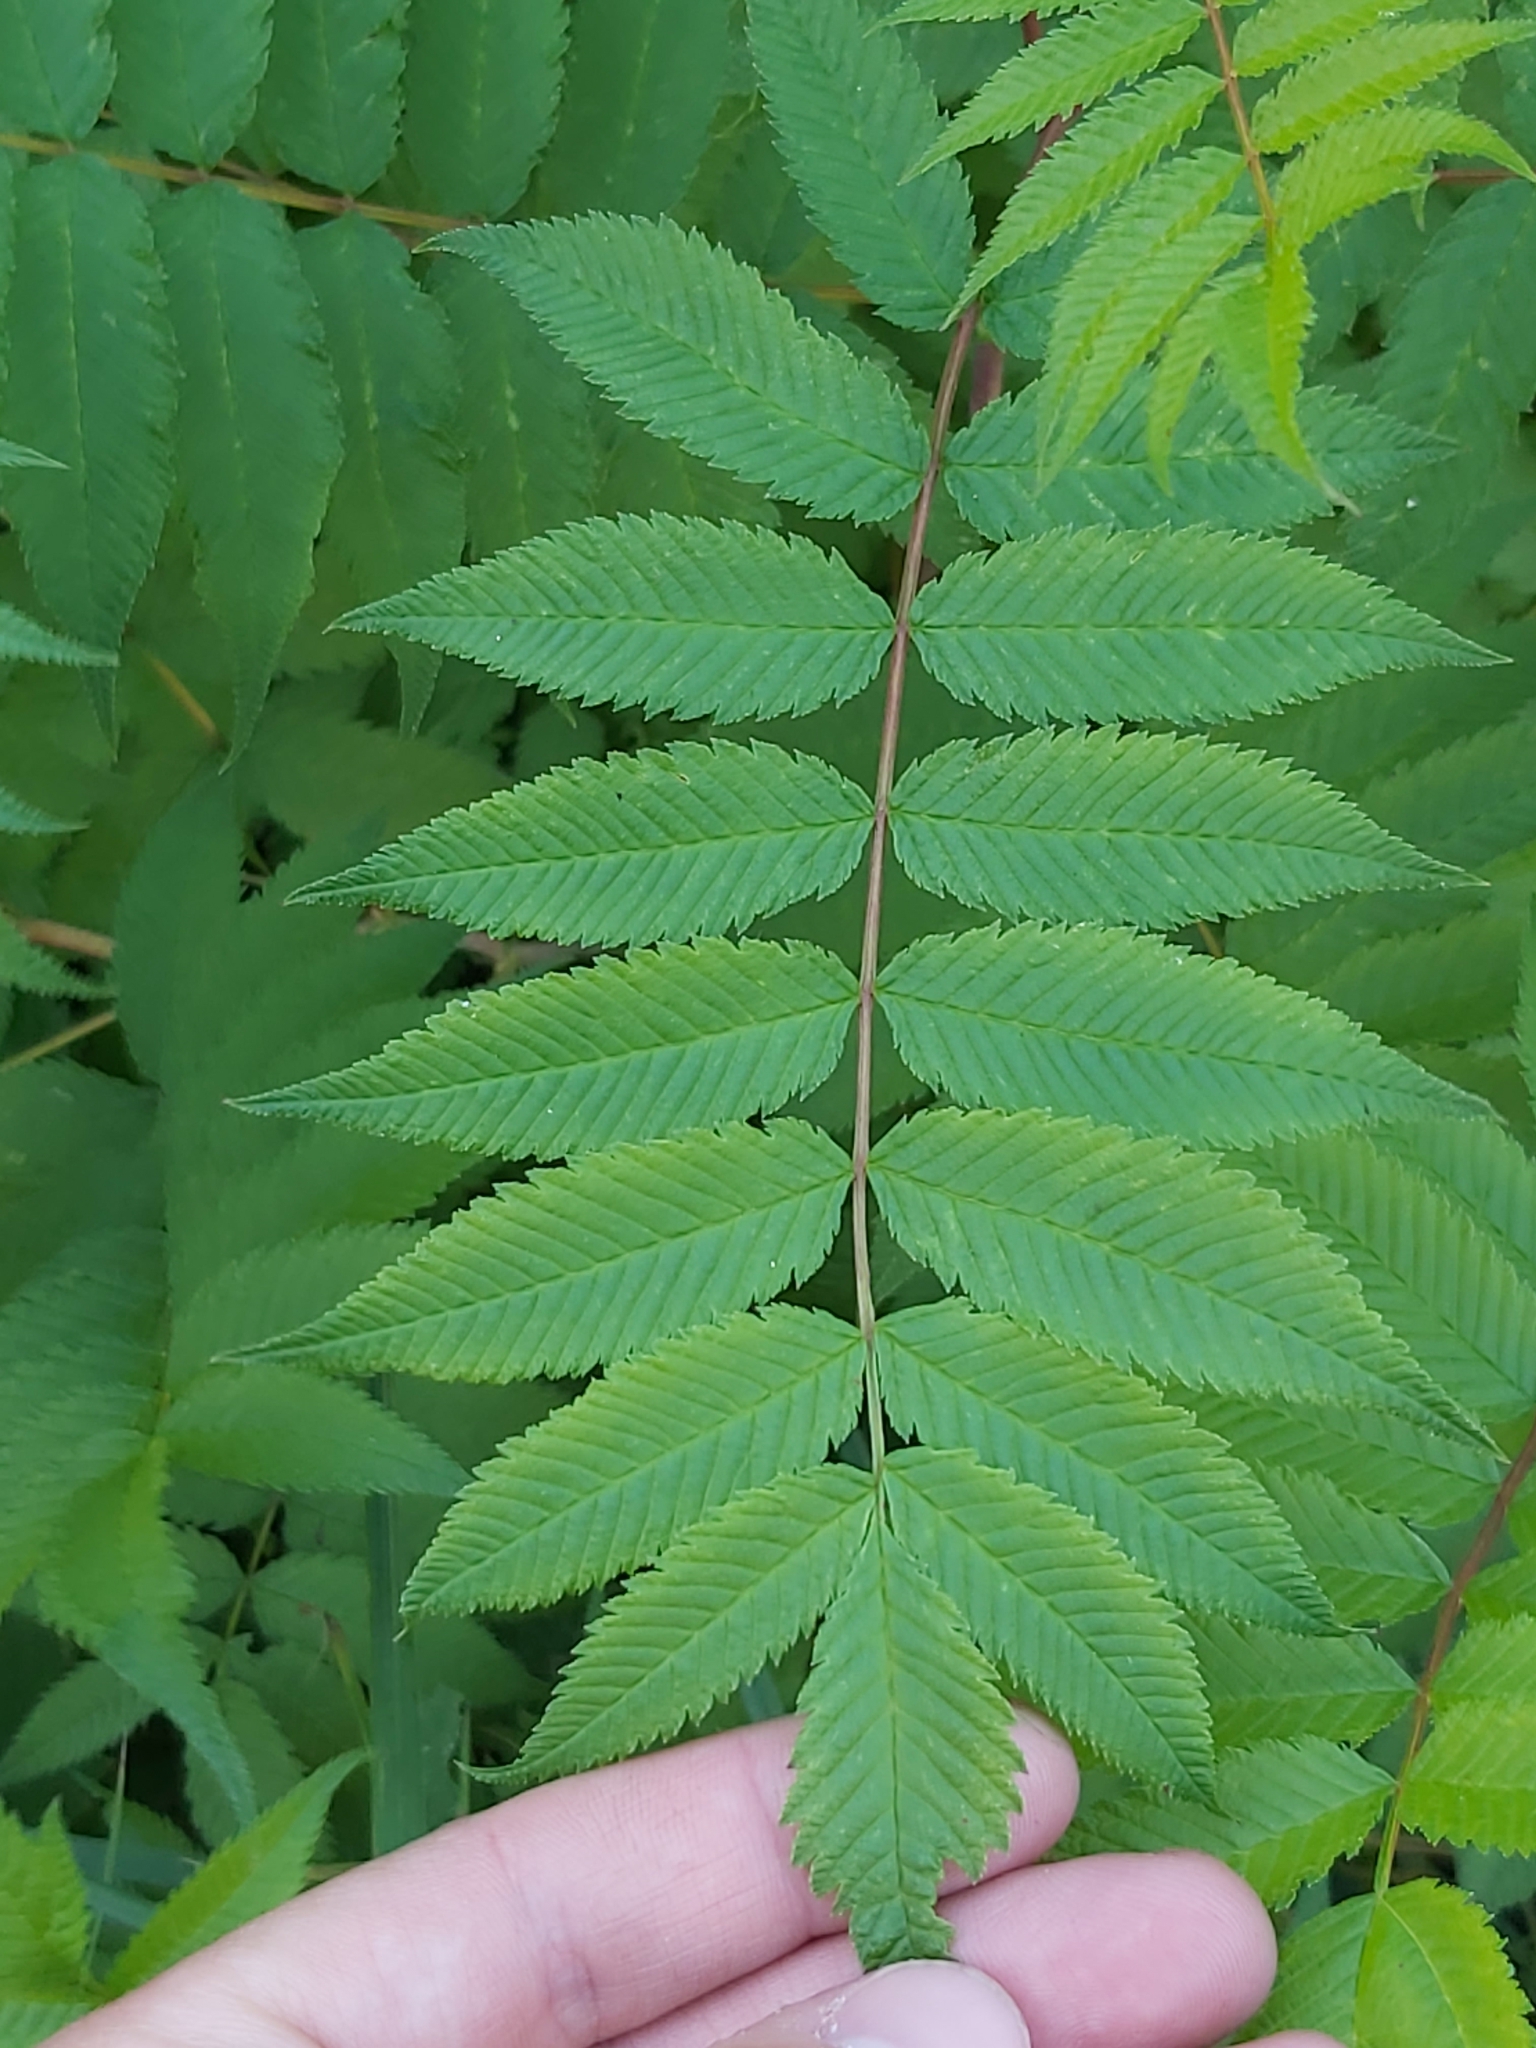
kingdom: Plantae
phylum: Tracheophyta
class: Magnoliopsida
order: Rosales
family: Rosaceae
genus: Sorbaria
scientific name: Sorbaria sorbifolia
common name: False spiraea
